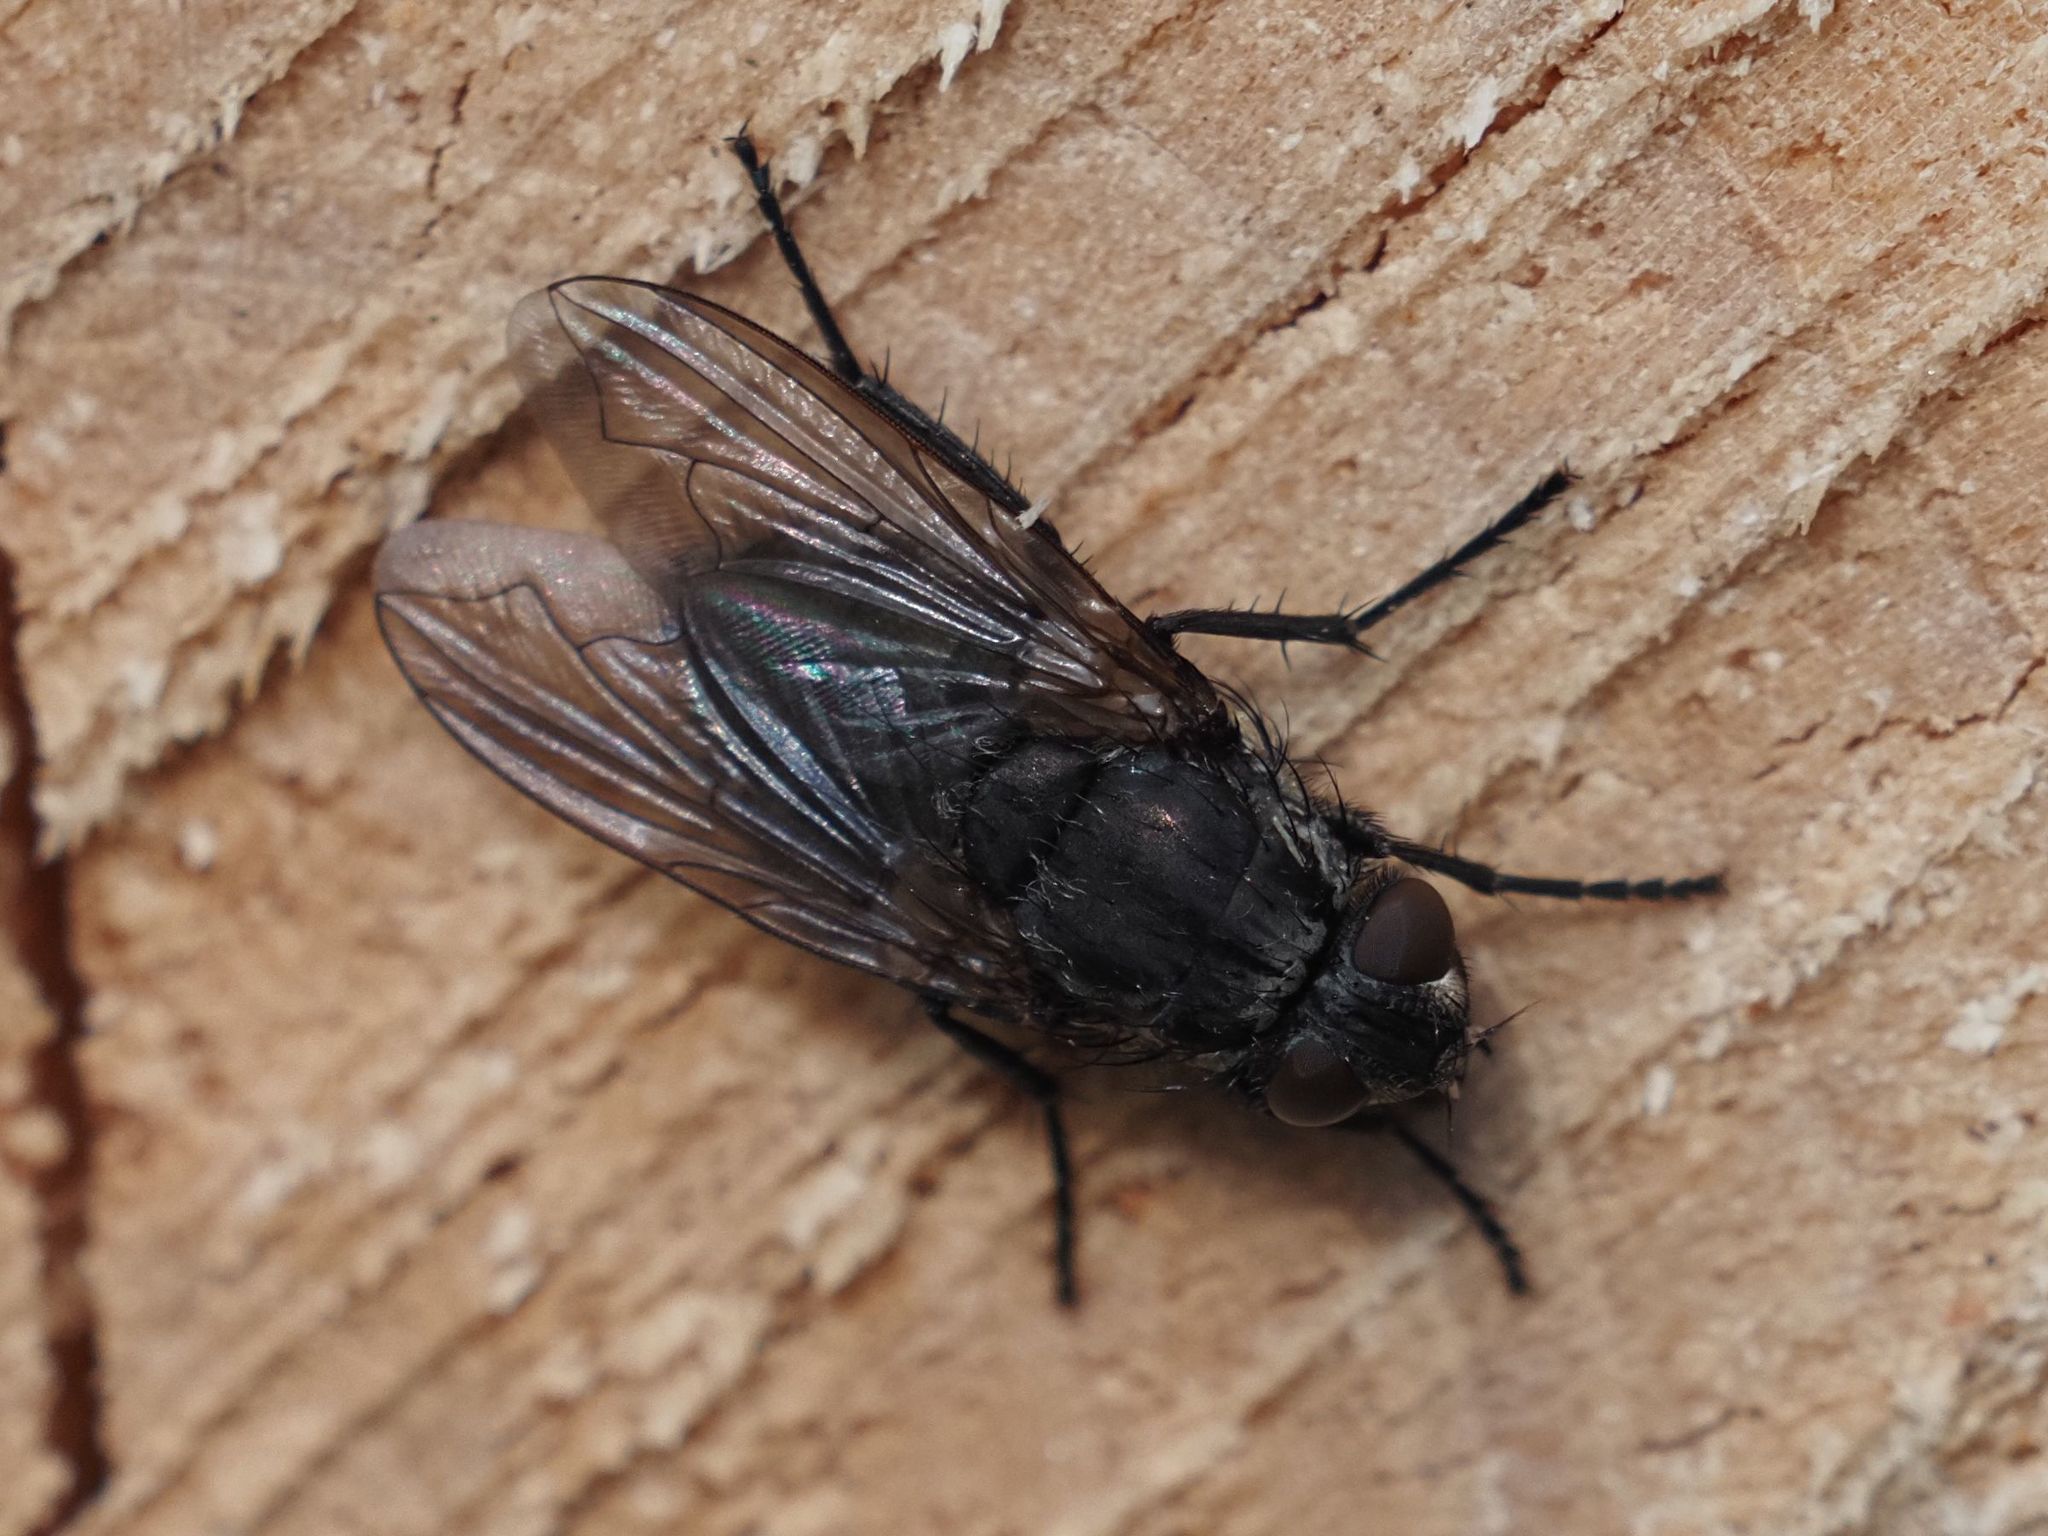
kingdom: Animalia
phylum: Arthropoda
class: Insecta
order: Diptera
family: Polleniidae
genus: Pollenia
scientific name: Pollenia vagabunda
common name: Vagabund cluster fly
